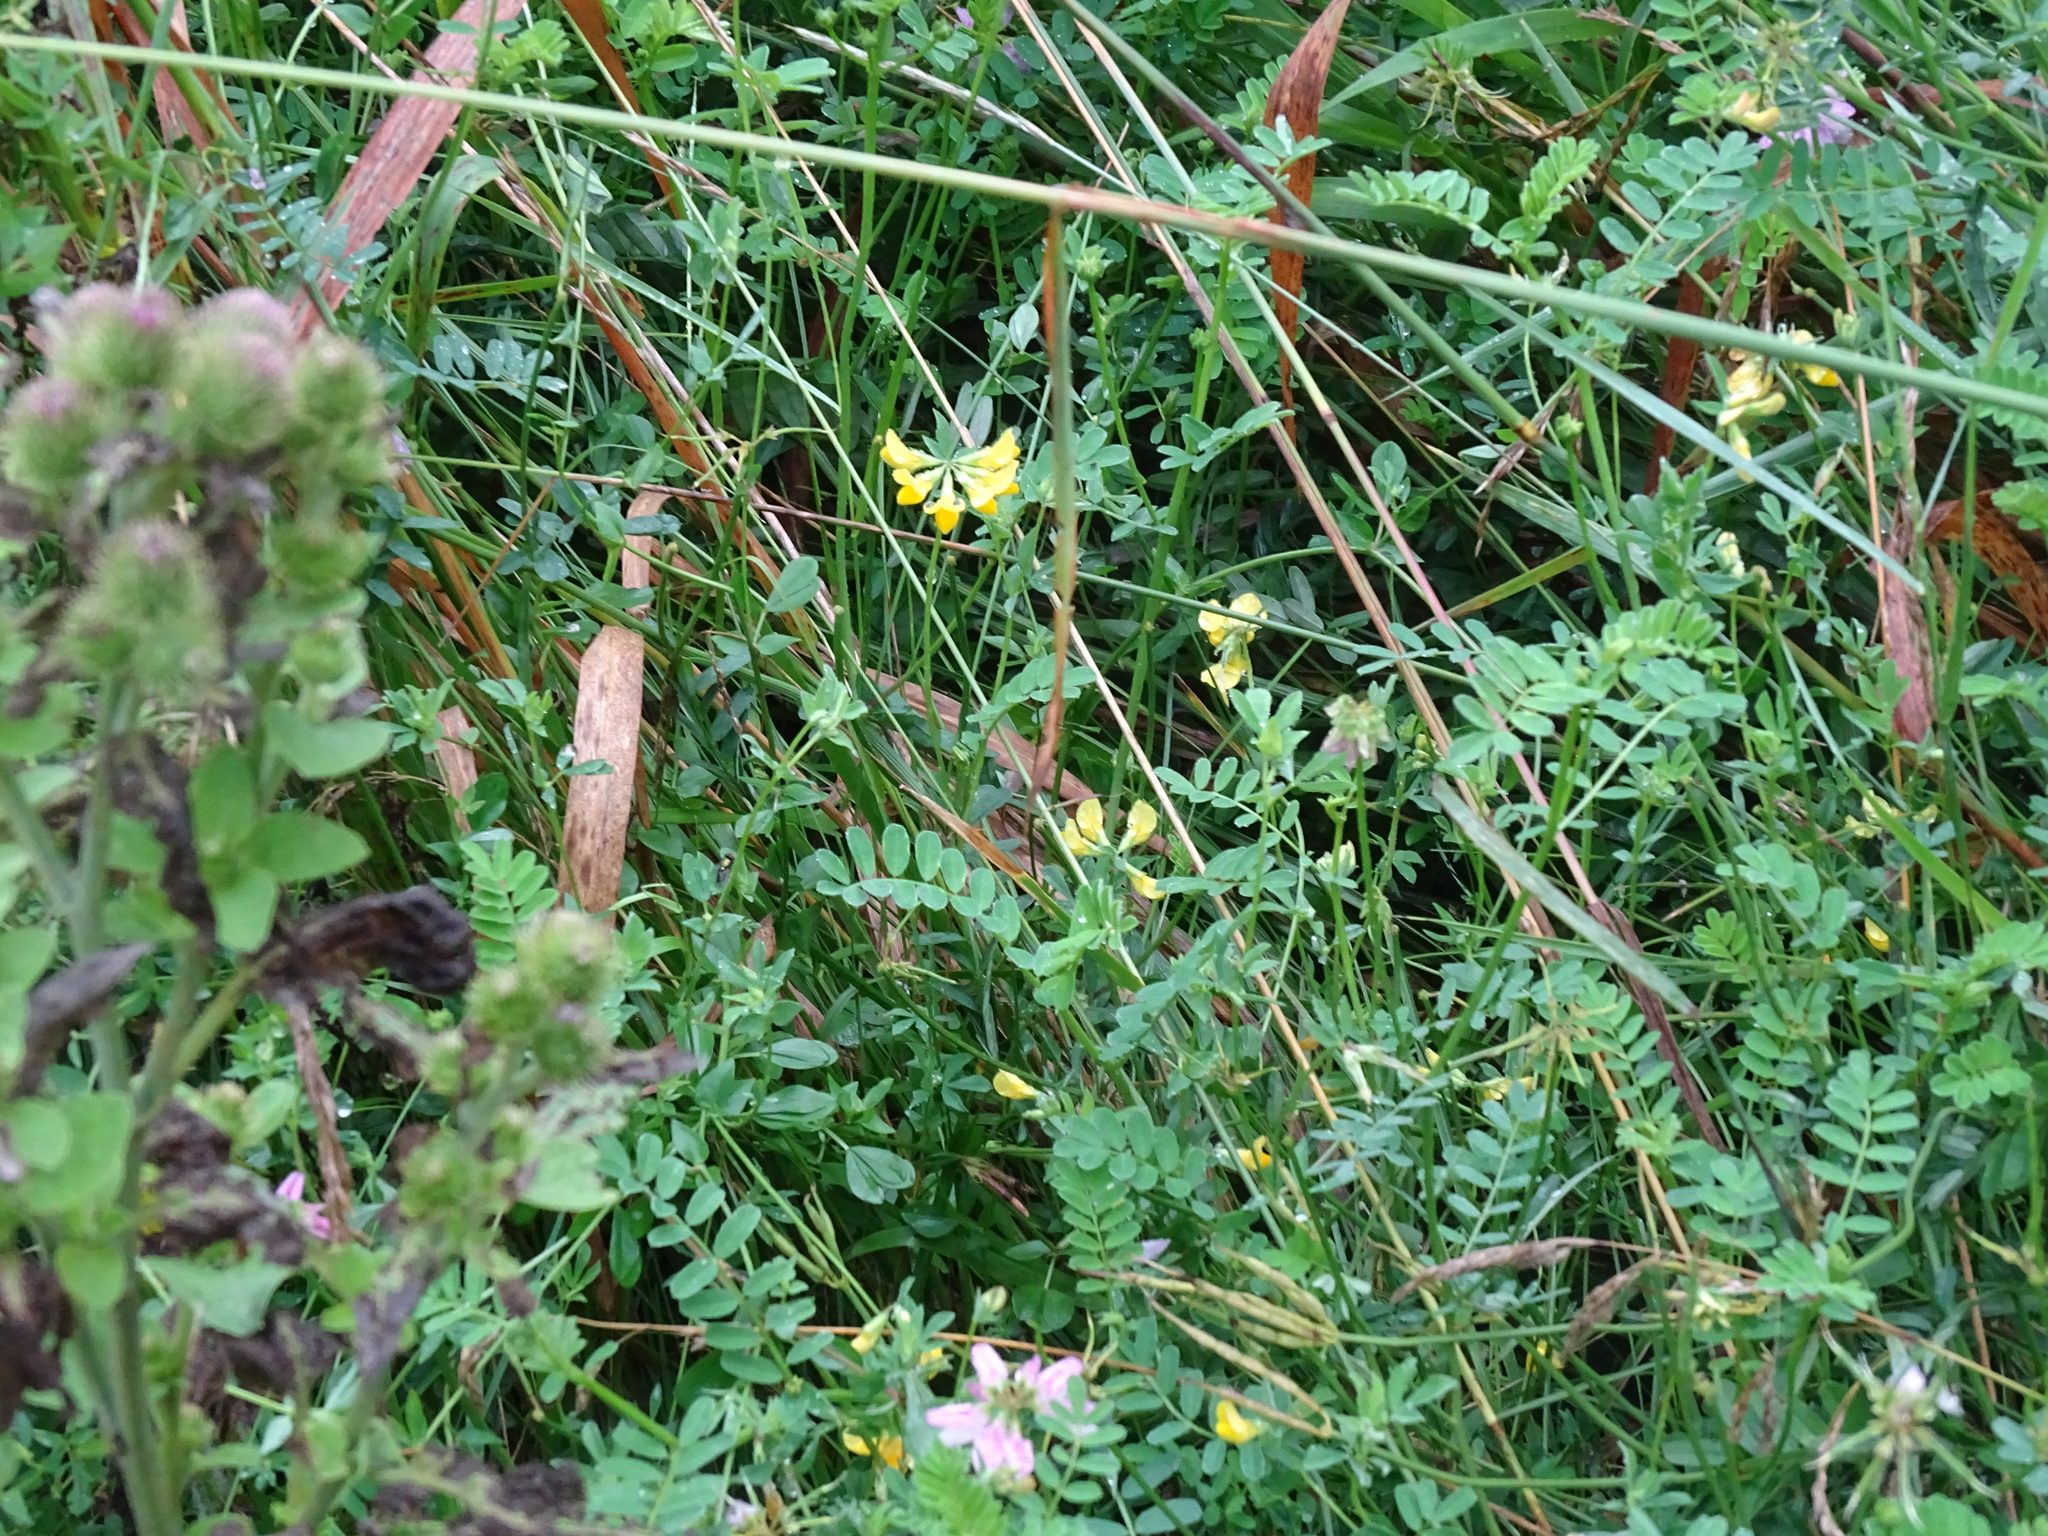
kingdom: Plantae
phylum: Tracheophyta
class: Magnoliopsida
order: Fabales
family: Fabaceae
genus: Lotus
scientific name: Lotus corniculatus
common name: Common bird's-foot-trefoil
